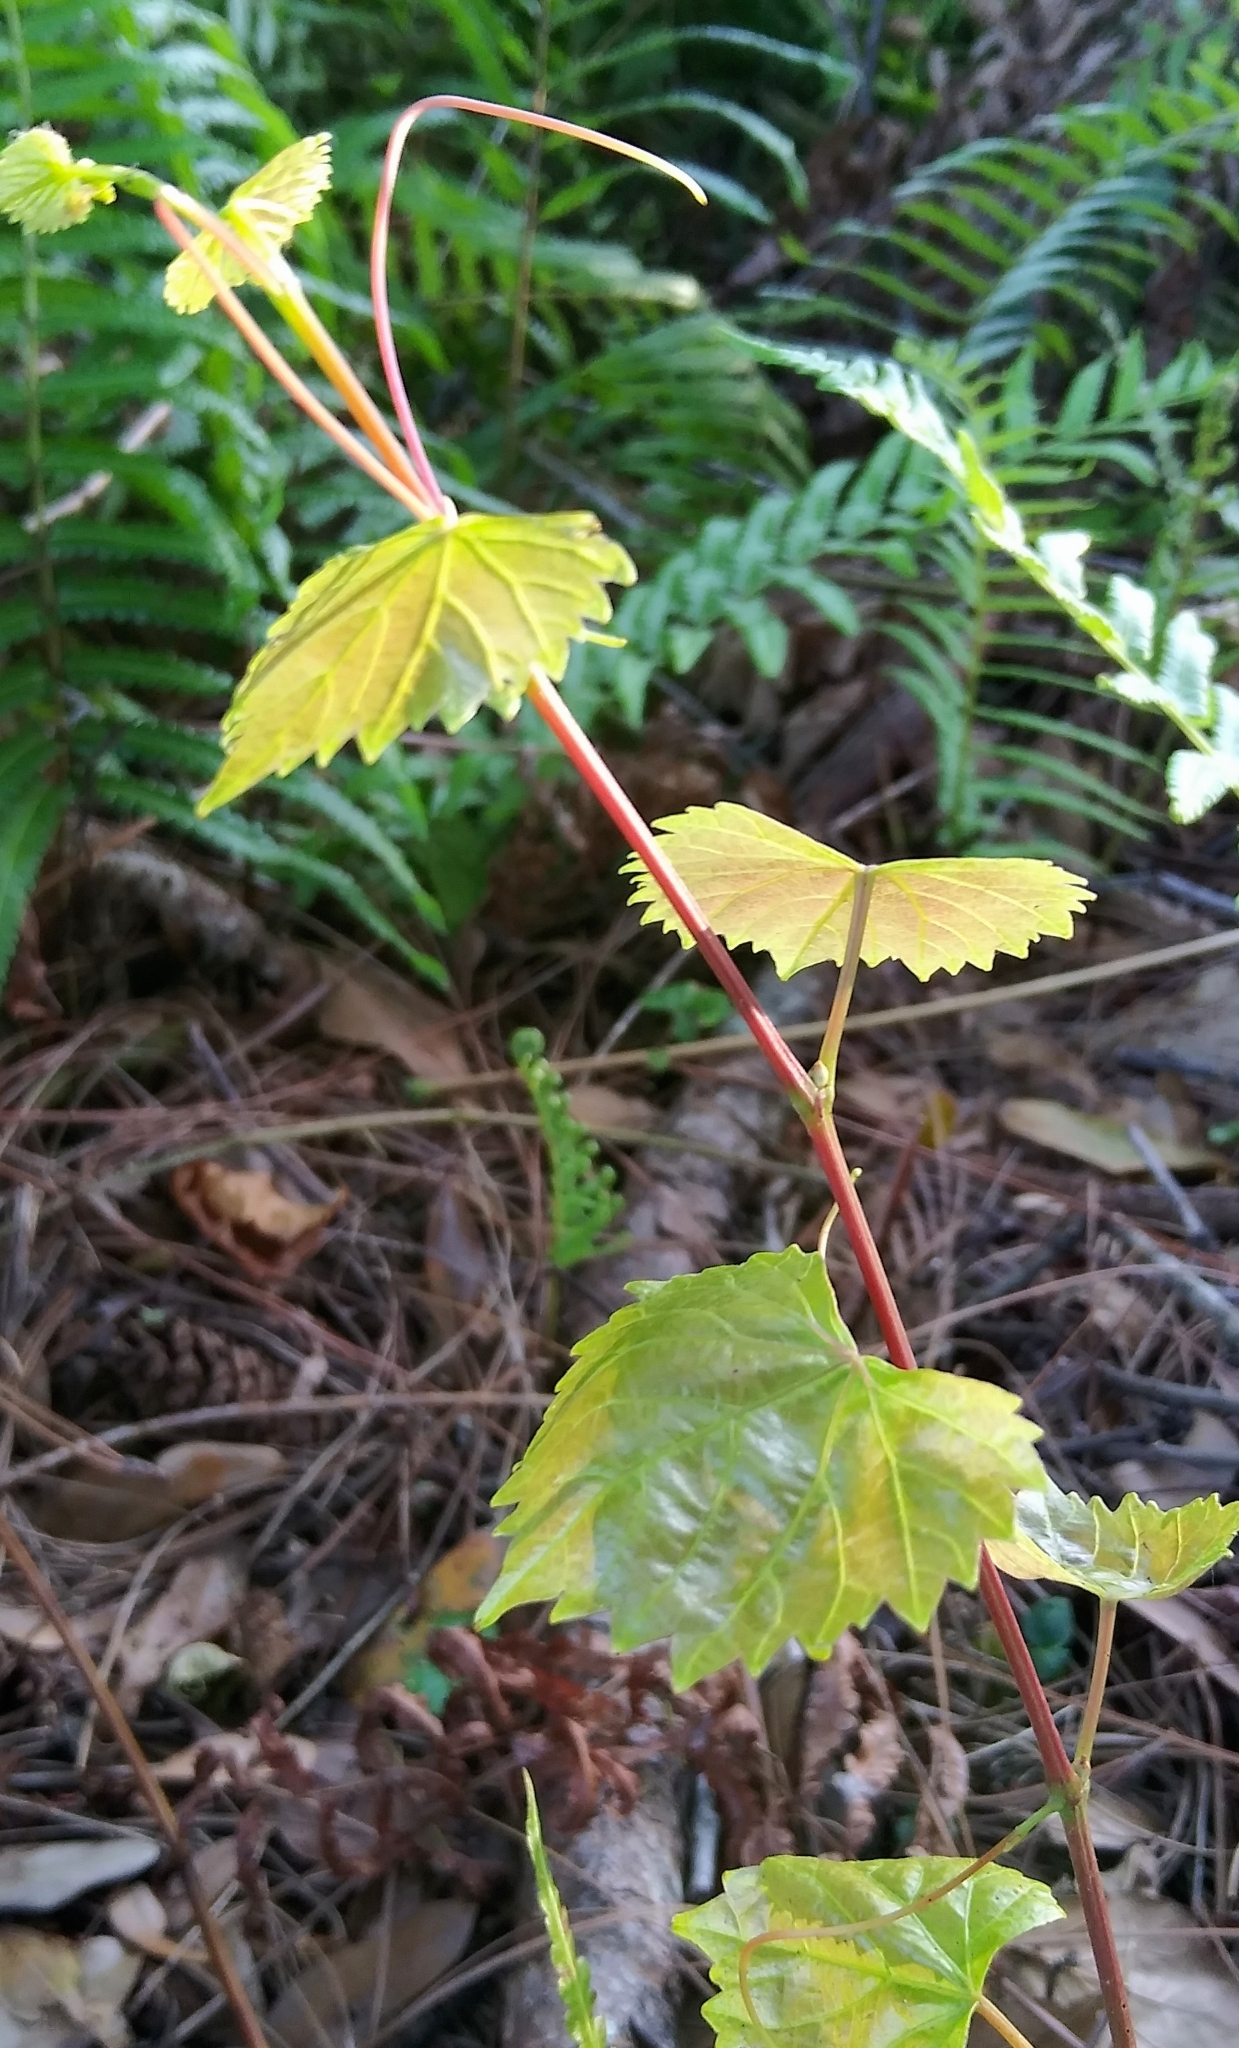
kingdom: Plantae
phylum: Tracheophyta
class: Magnoliopsida
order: Vitales
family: Vitaceae
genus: Vitis
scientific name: Vitis rotundifolia
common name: Muscadine grape
